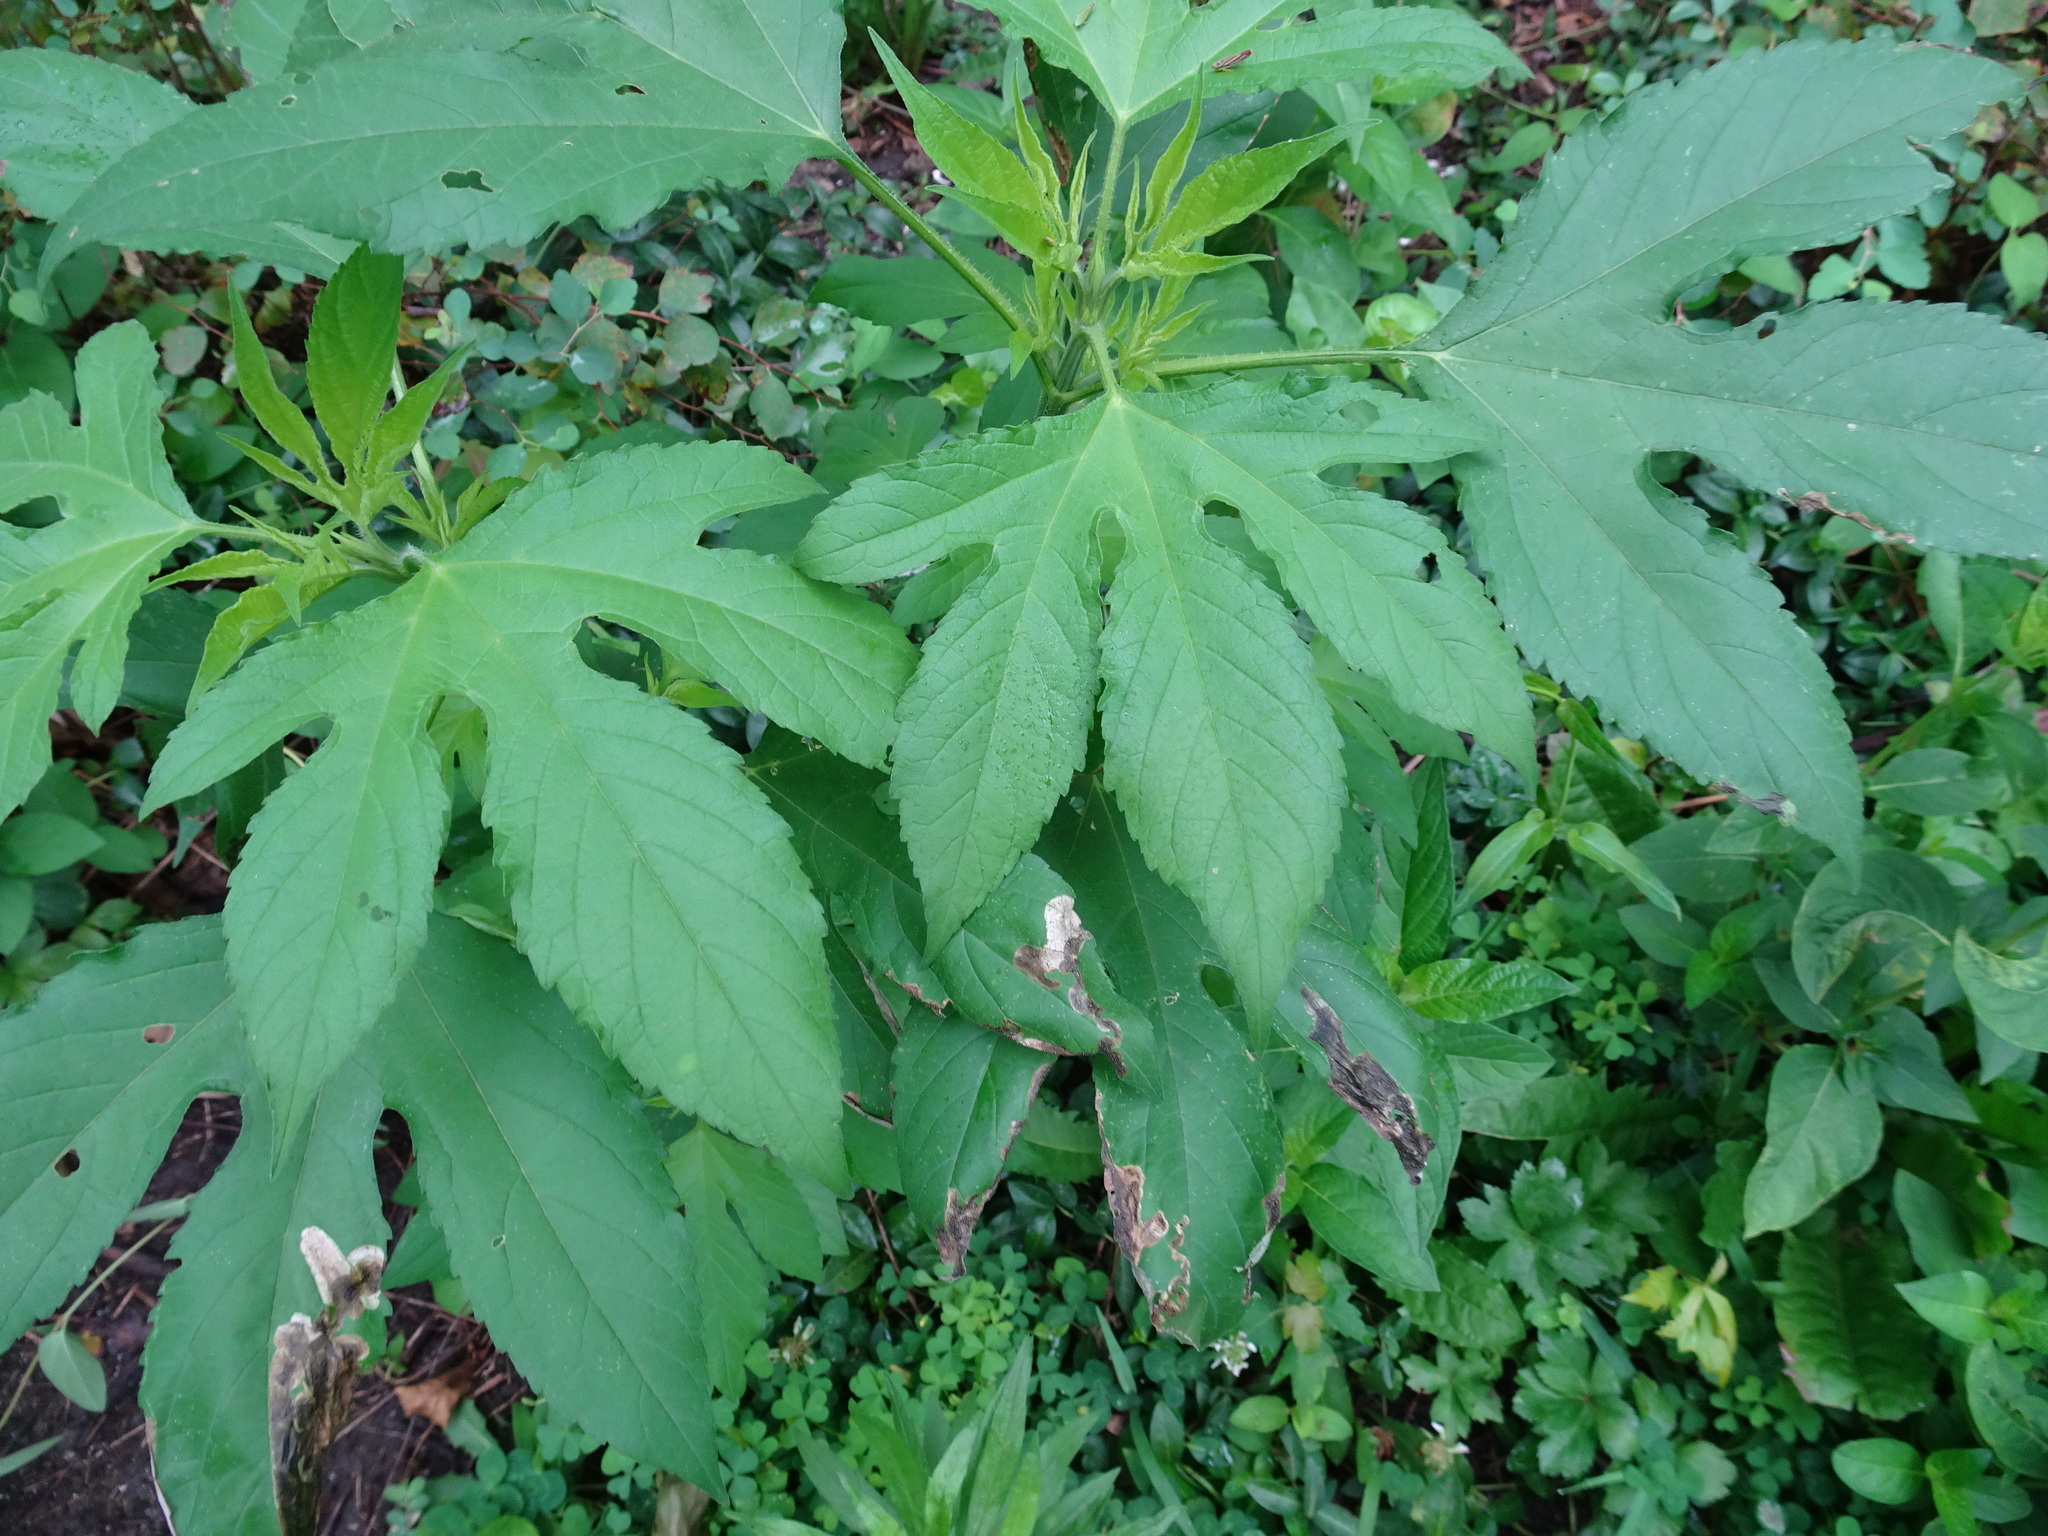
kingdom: Plantae
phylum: Tracheophyta
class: Magnoliopsida
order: Asterales
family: Asteraceae
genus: Ambrosia
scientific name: Ambrosia trifida
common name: Giant ragweed
